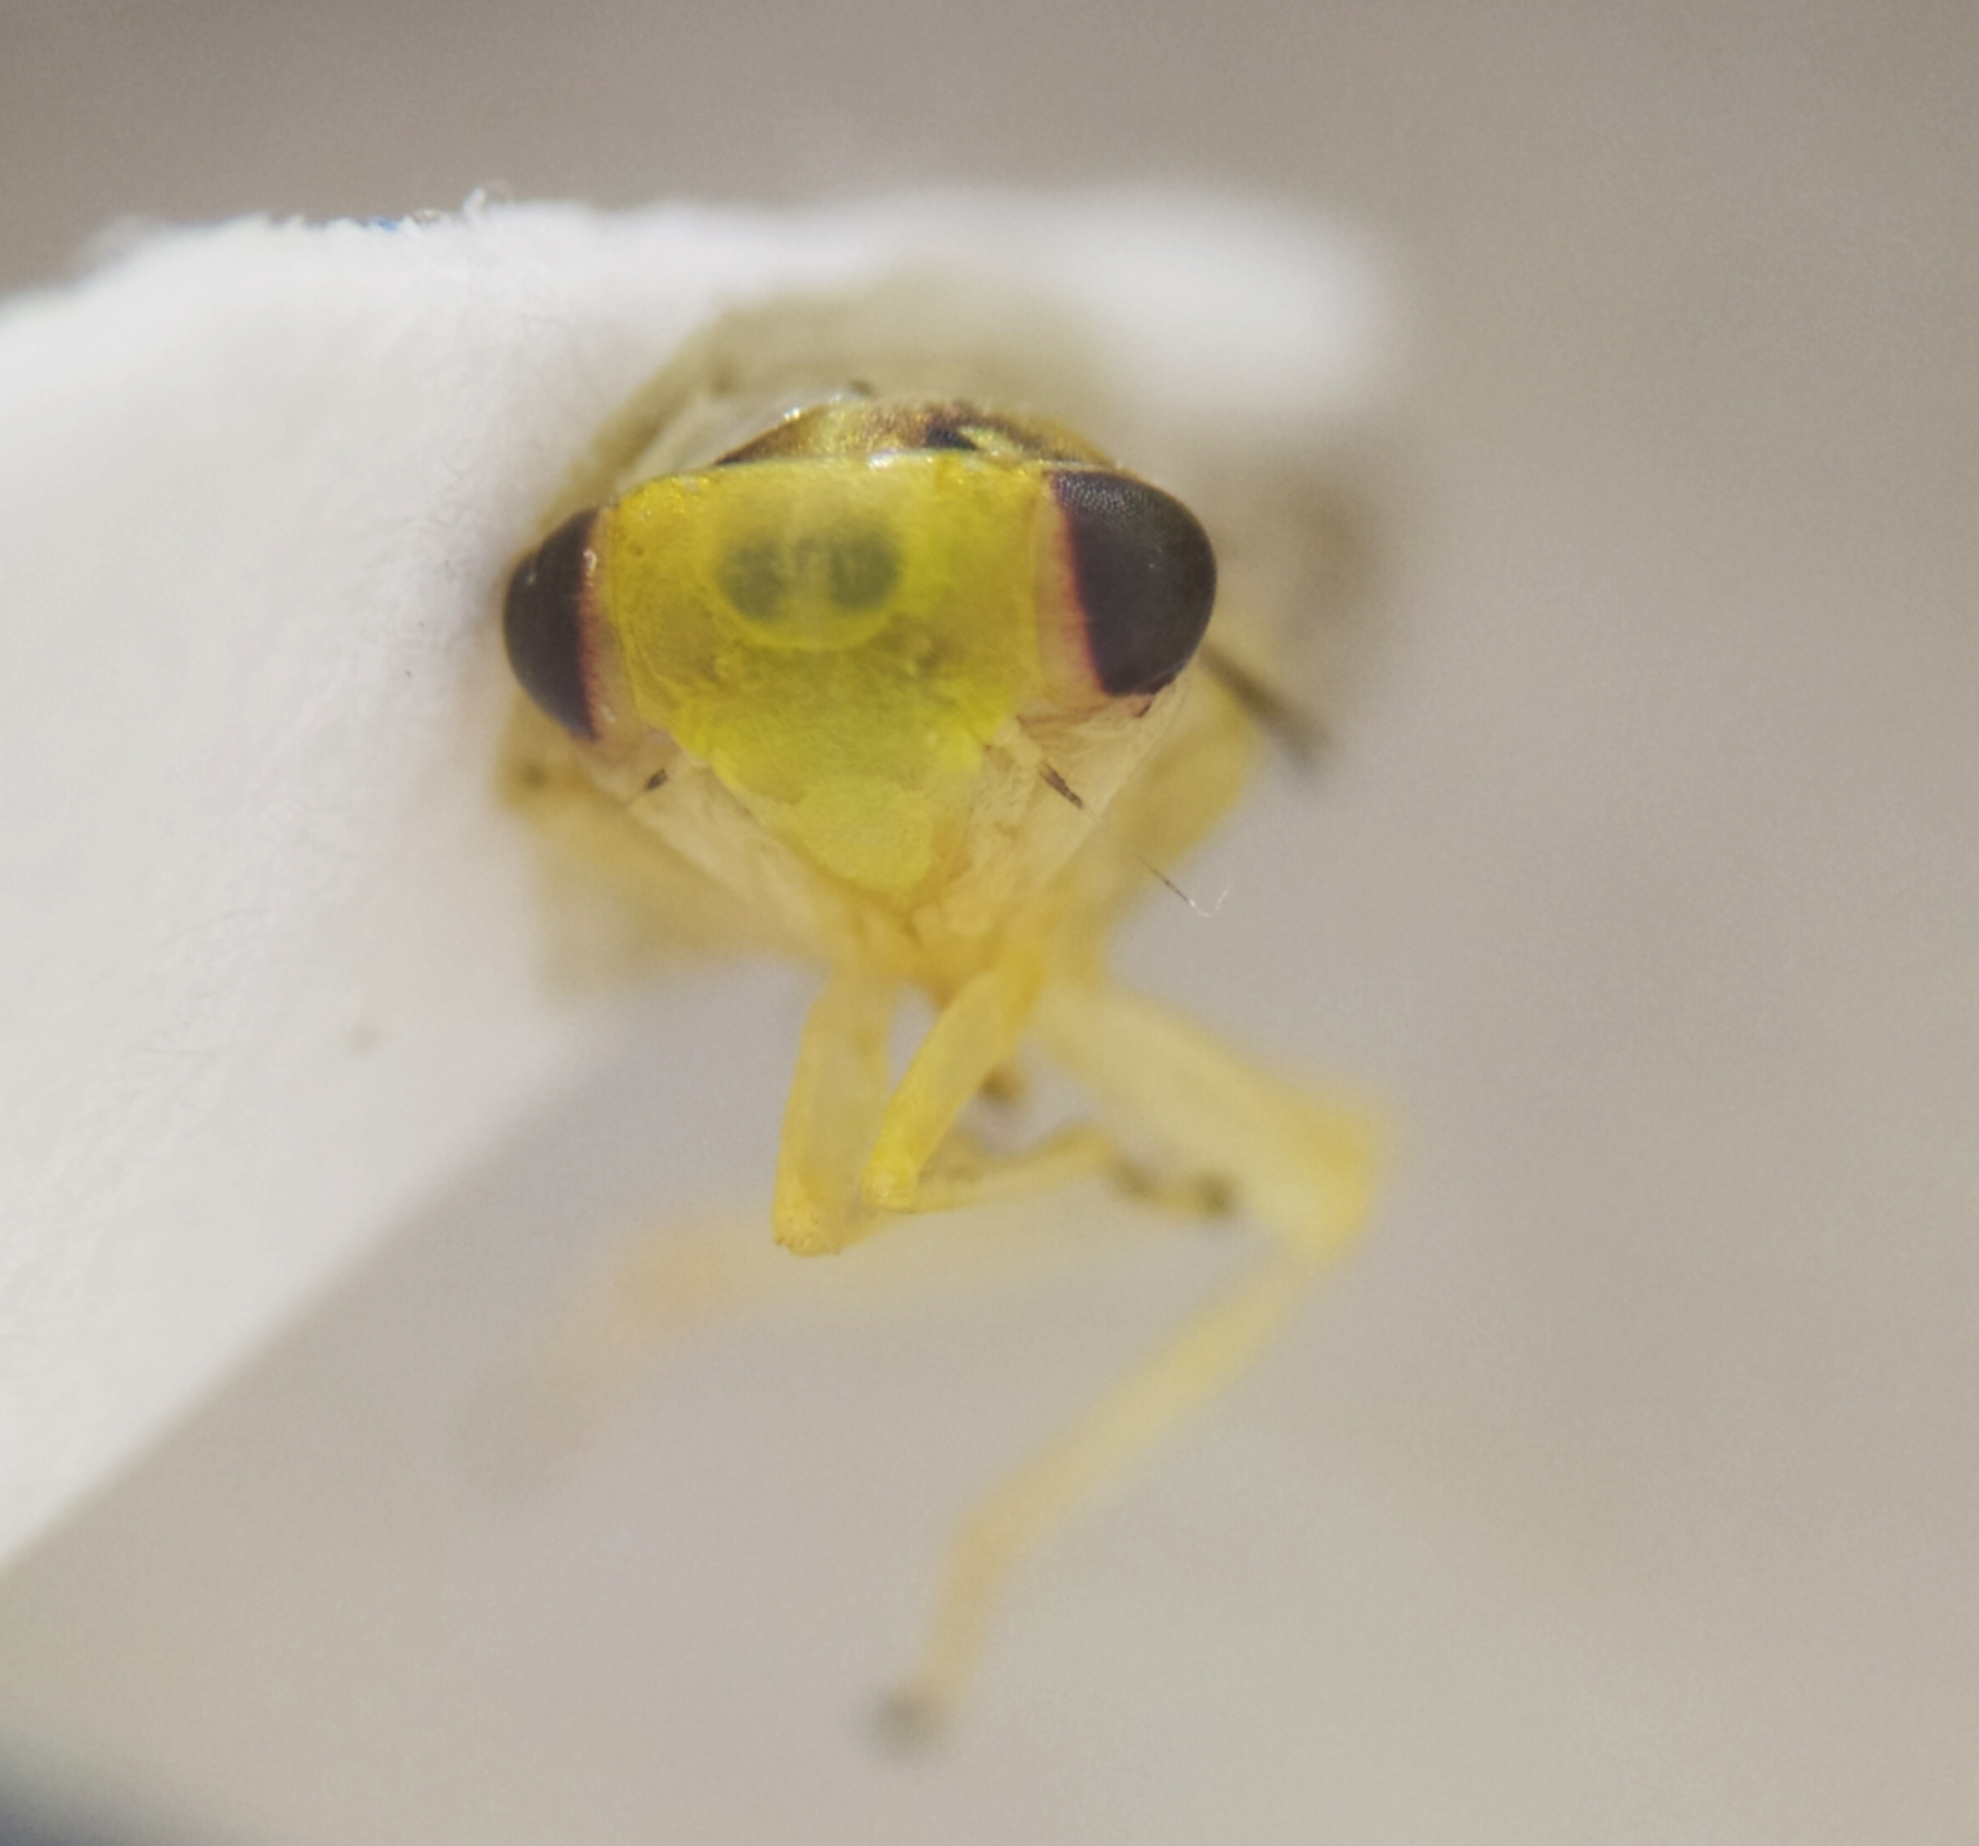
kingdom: Animalia
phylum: Arthropoda
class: Insecta
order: Hemiptera
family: Cicadellidae
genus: Tremulicerus
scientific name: Tremulicerus vitreus
